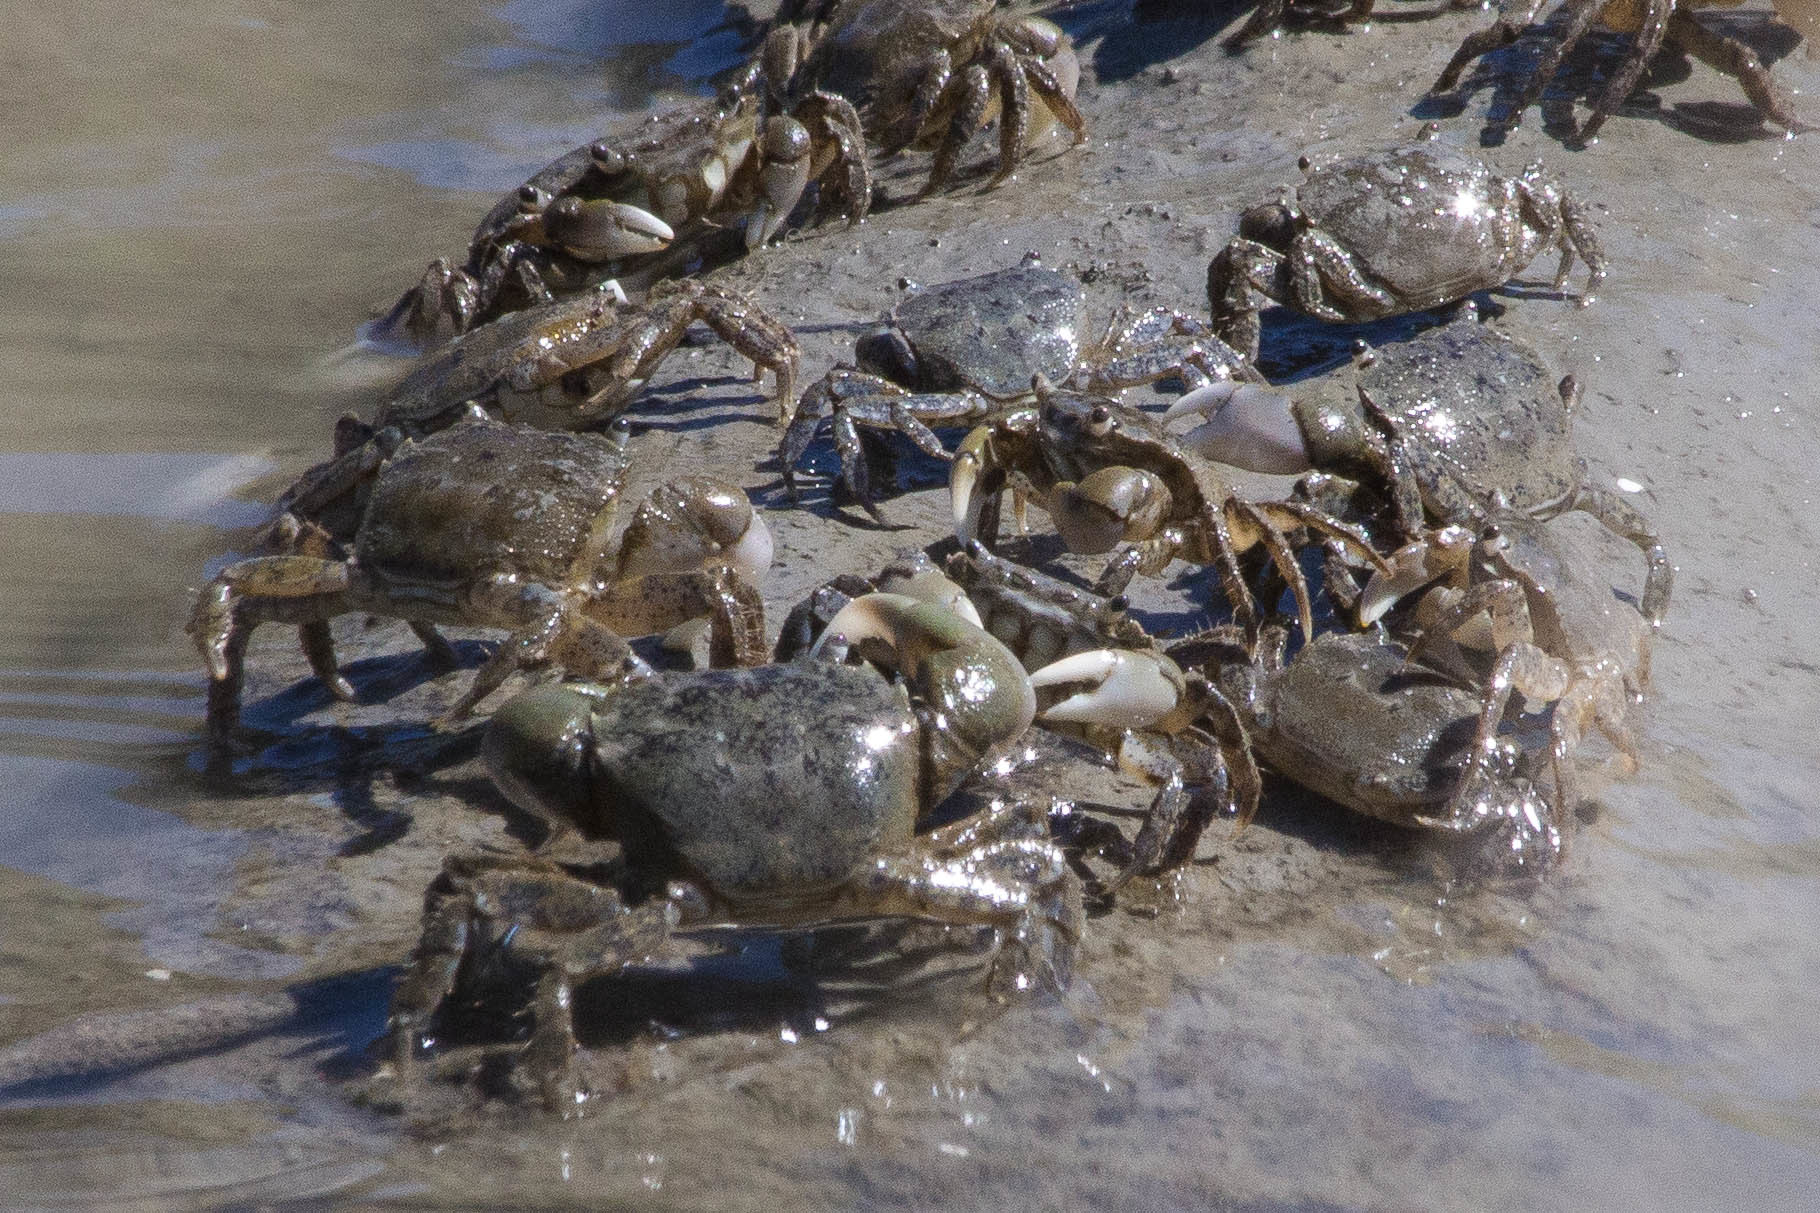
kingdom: Animalia
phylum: Arthropoda
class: Malacostraca
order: Decapoda
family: Varunidae
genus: Hemigrapsus
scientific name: Hemigrapsus oregonensis
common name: Yellow shore crab
